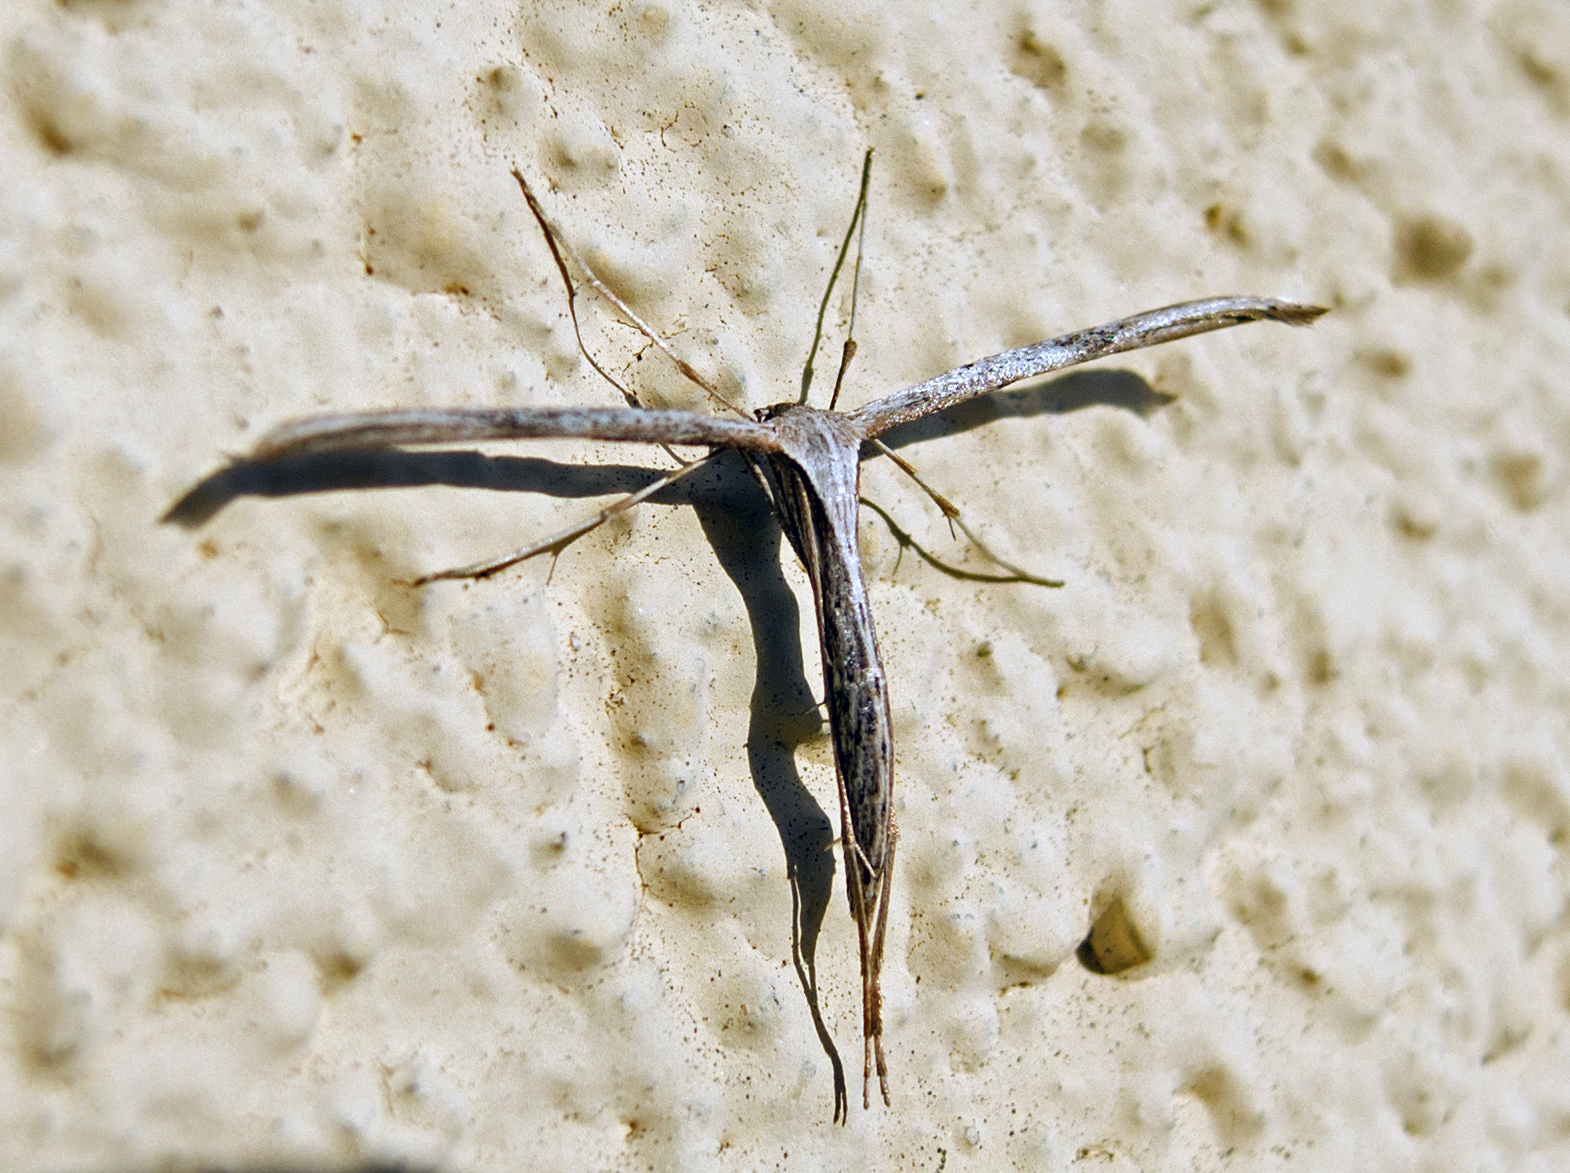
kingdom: Animalia
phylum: Arthropoda
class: Insecta
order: Lepidoptera
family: Pterophoridae
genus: Emmelina
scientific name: Emmelina monodactyla
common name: Common plume
